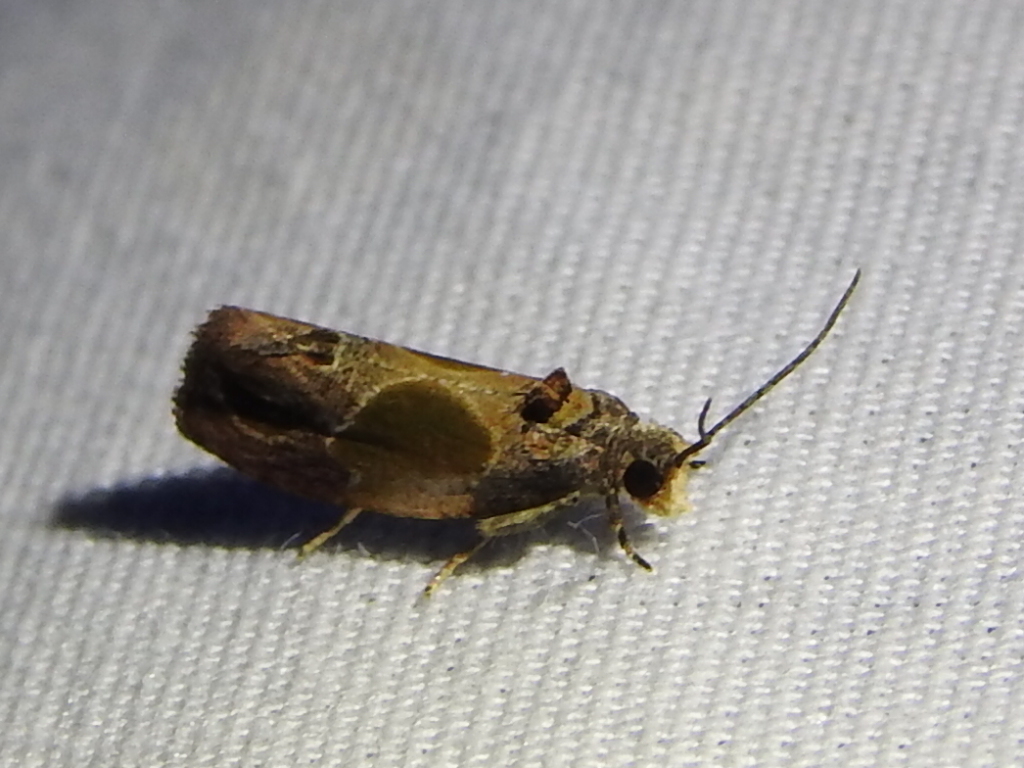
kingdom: Animalia
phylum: Arthropoda
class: Insecta
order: Lepidoptera
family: Tortricidae
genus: Eumarozia
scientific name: Eumarozia malachitana
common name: Sculptured moth
